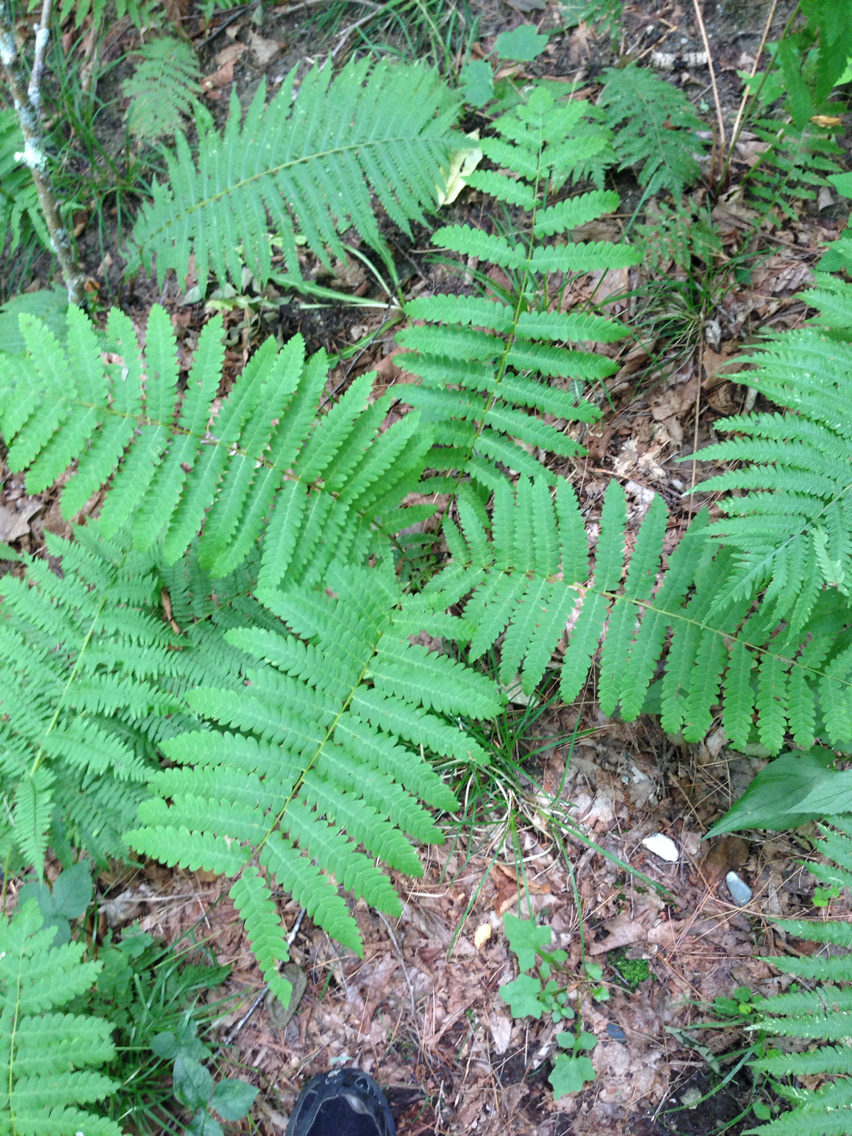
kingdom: Plantae
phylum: Tracheophyta
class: Polypodiopsida
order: Osmundales
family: Osmundaceae
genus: Claytosmunda
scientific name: Claytosmunda claytoniana
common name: Clayton's fern
